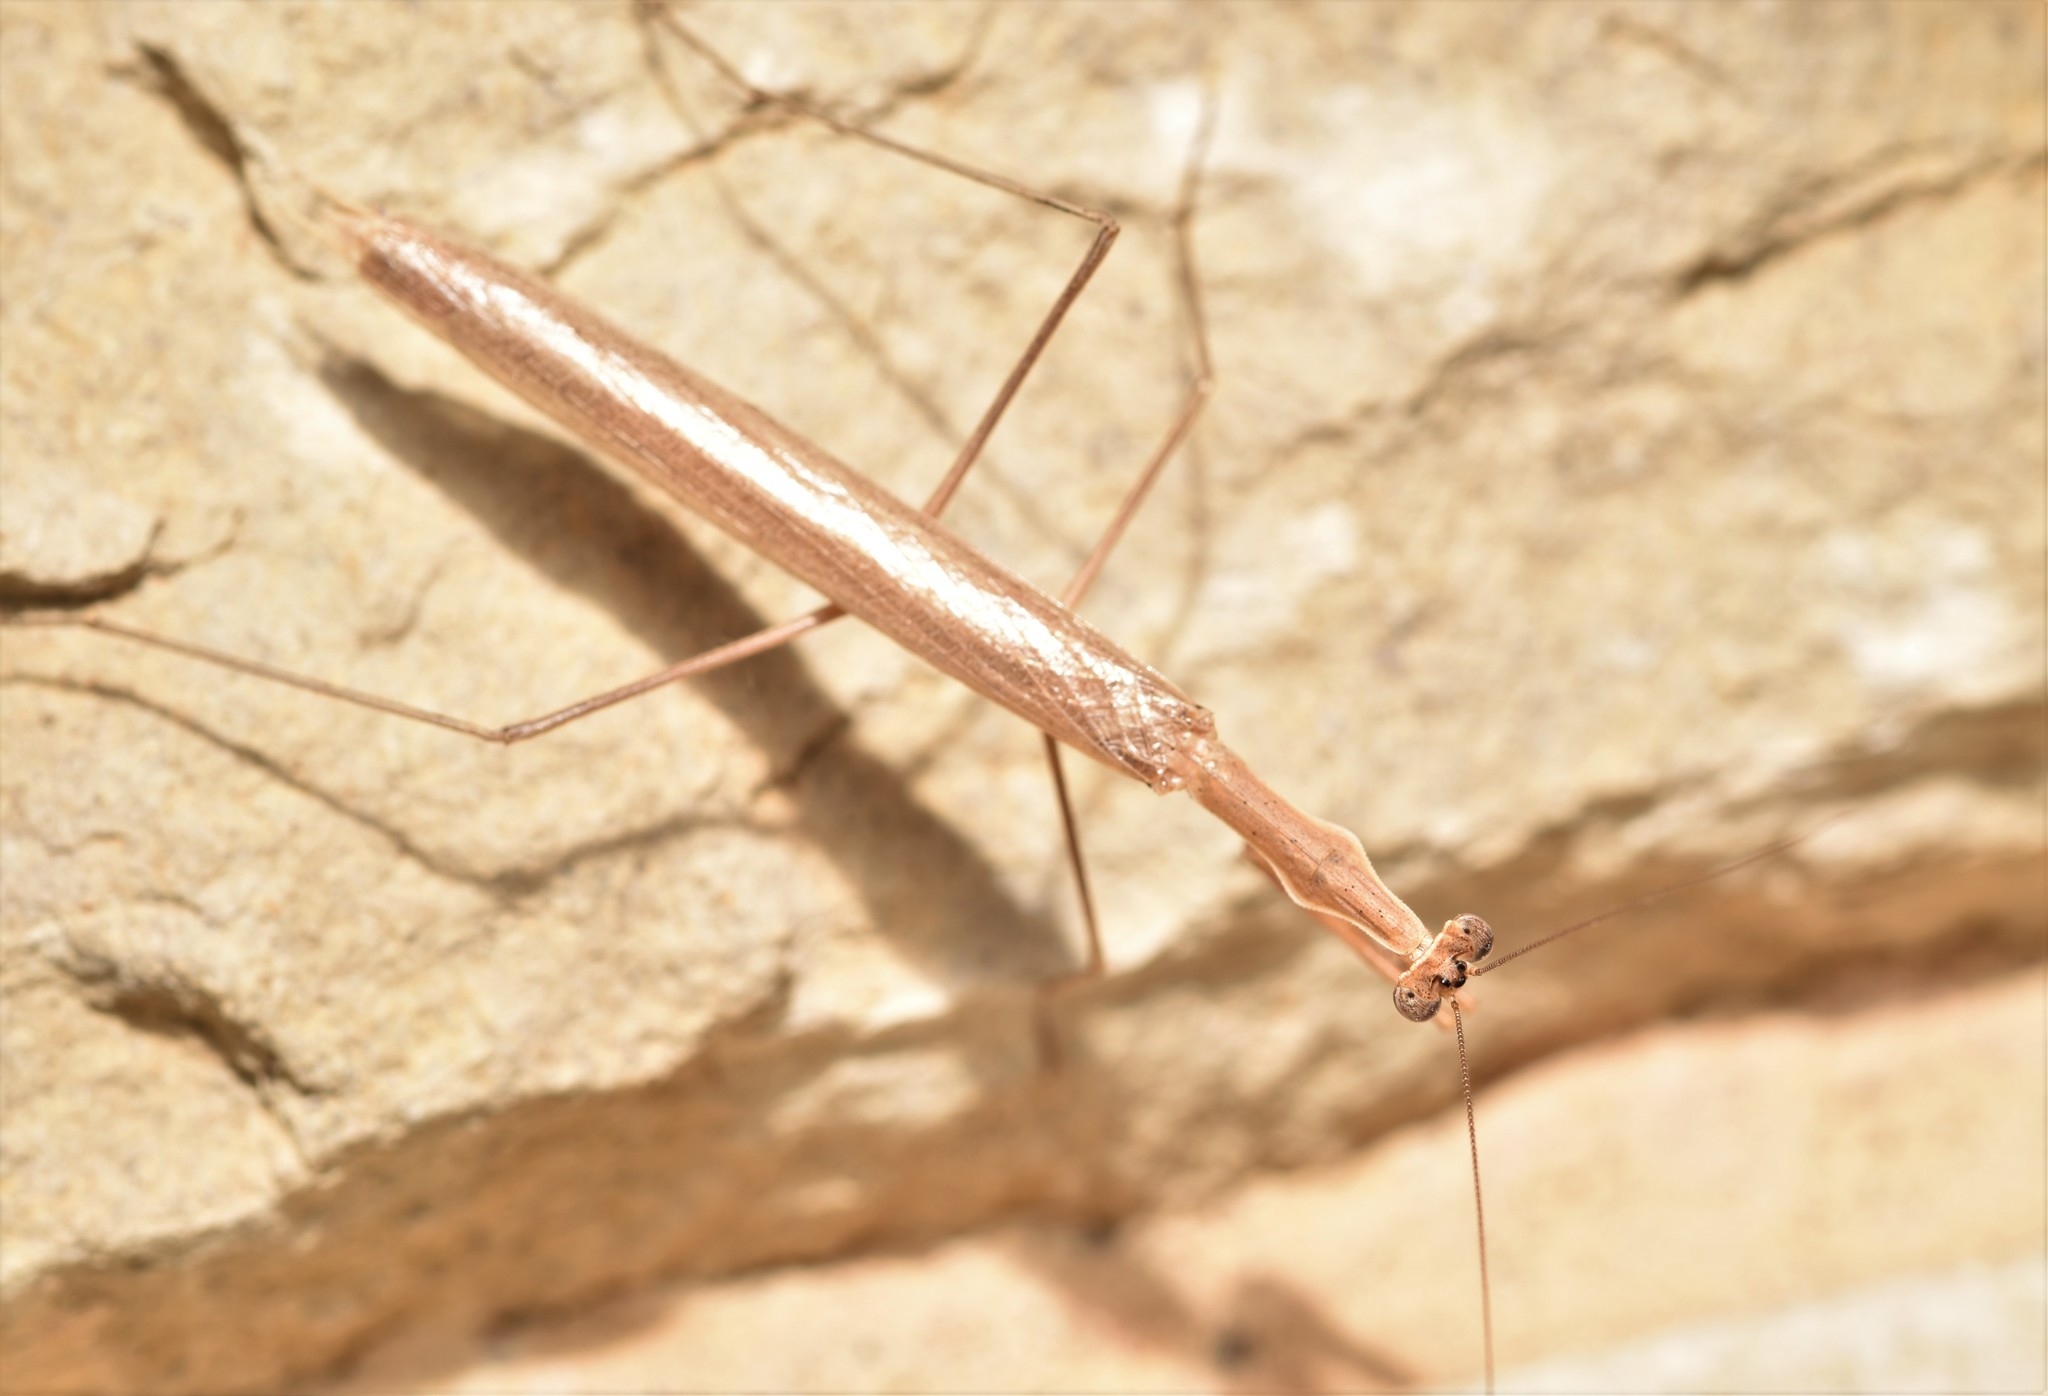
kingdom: Animalia
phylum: Arthropoda
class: Insecta
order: Mantodea
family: Thespidae
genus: Oligonicella
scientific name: Oligonicella scudderi
